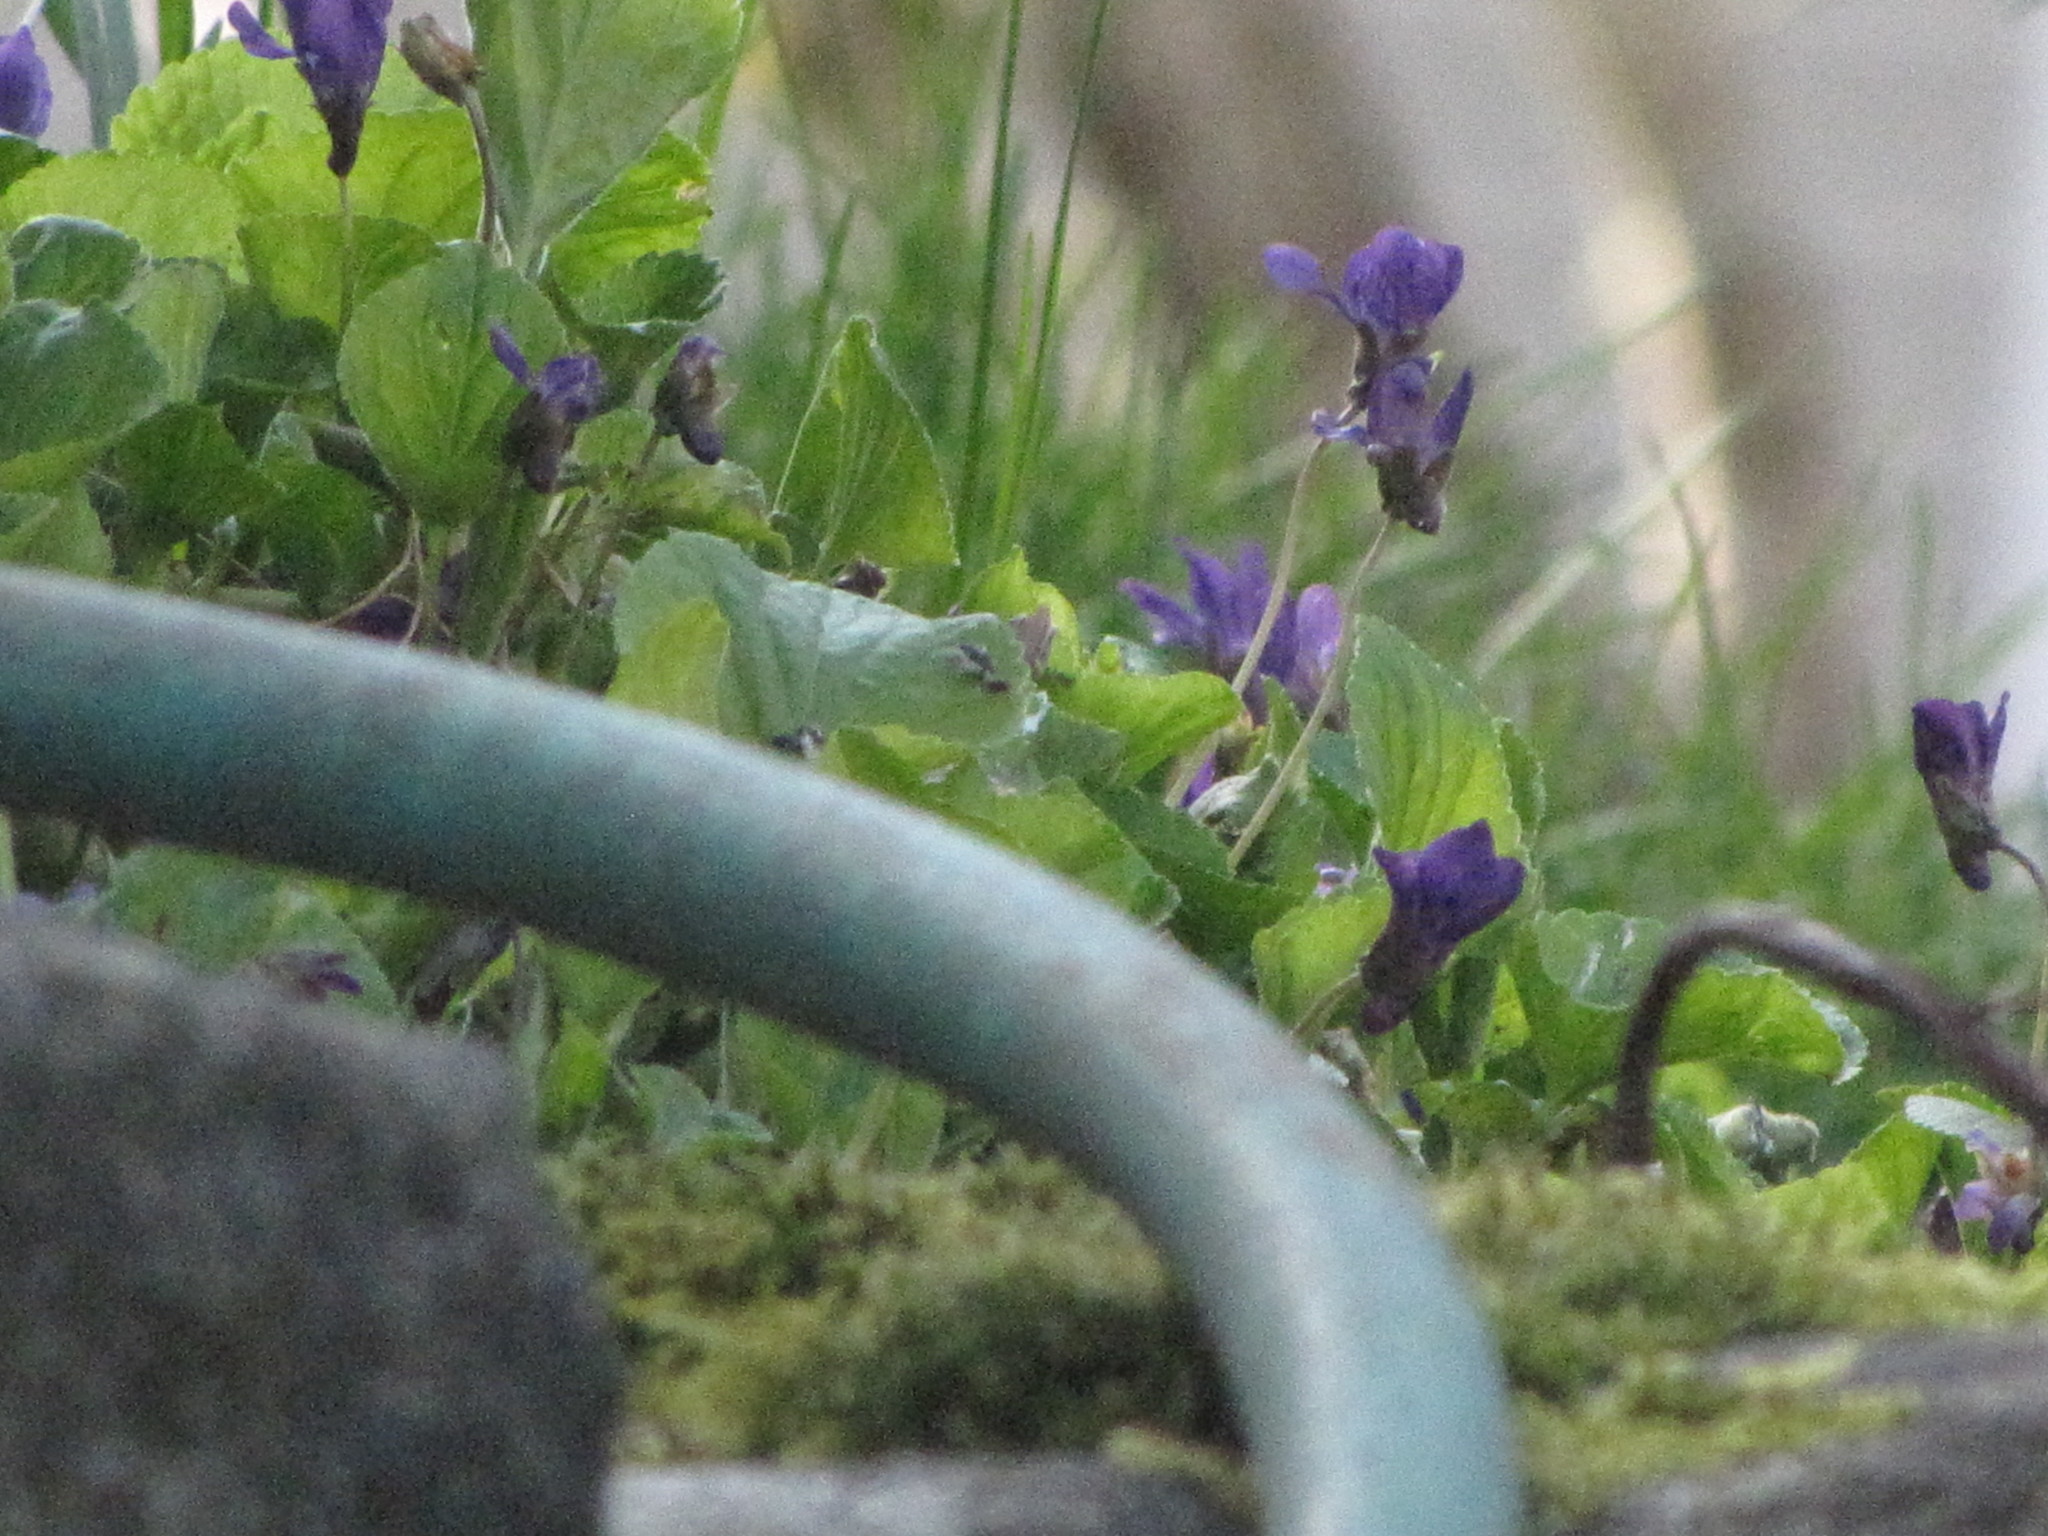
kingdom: Plantae
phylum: Tracheophyta
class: Magnoliopsida
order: Malpighiales
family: Violaceae
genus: Viola
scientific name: Viola odorata
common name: Sweet violet
